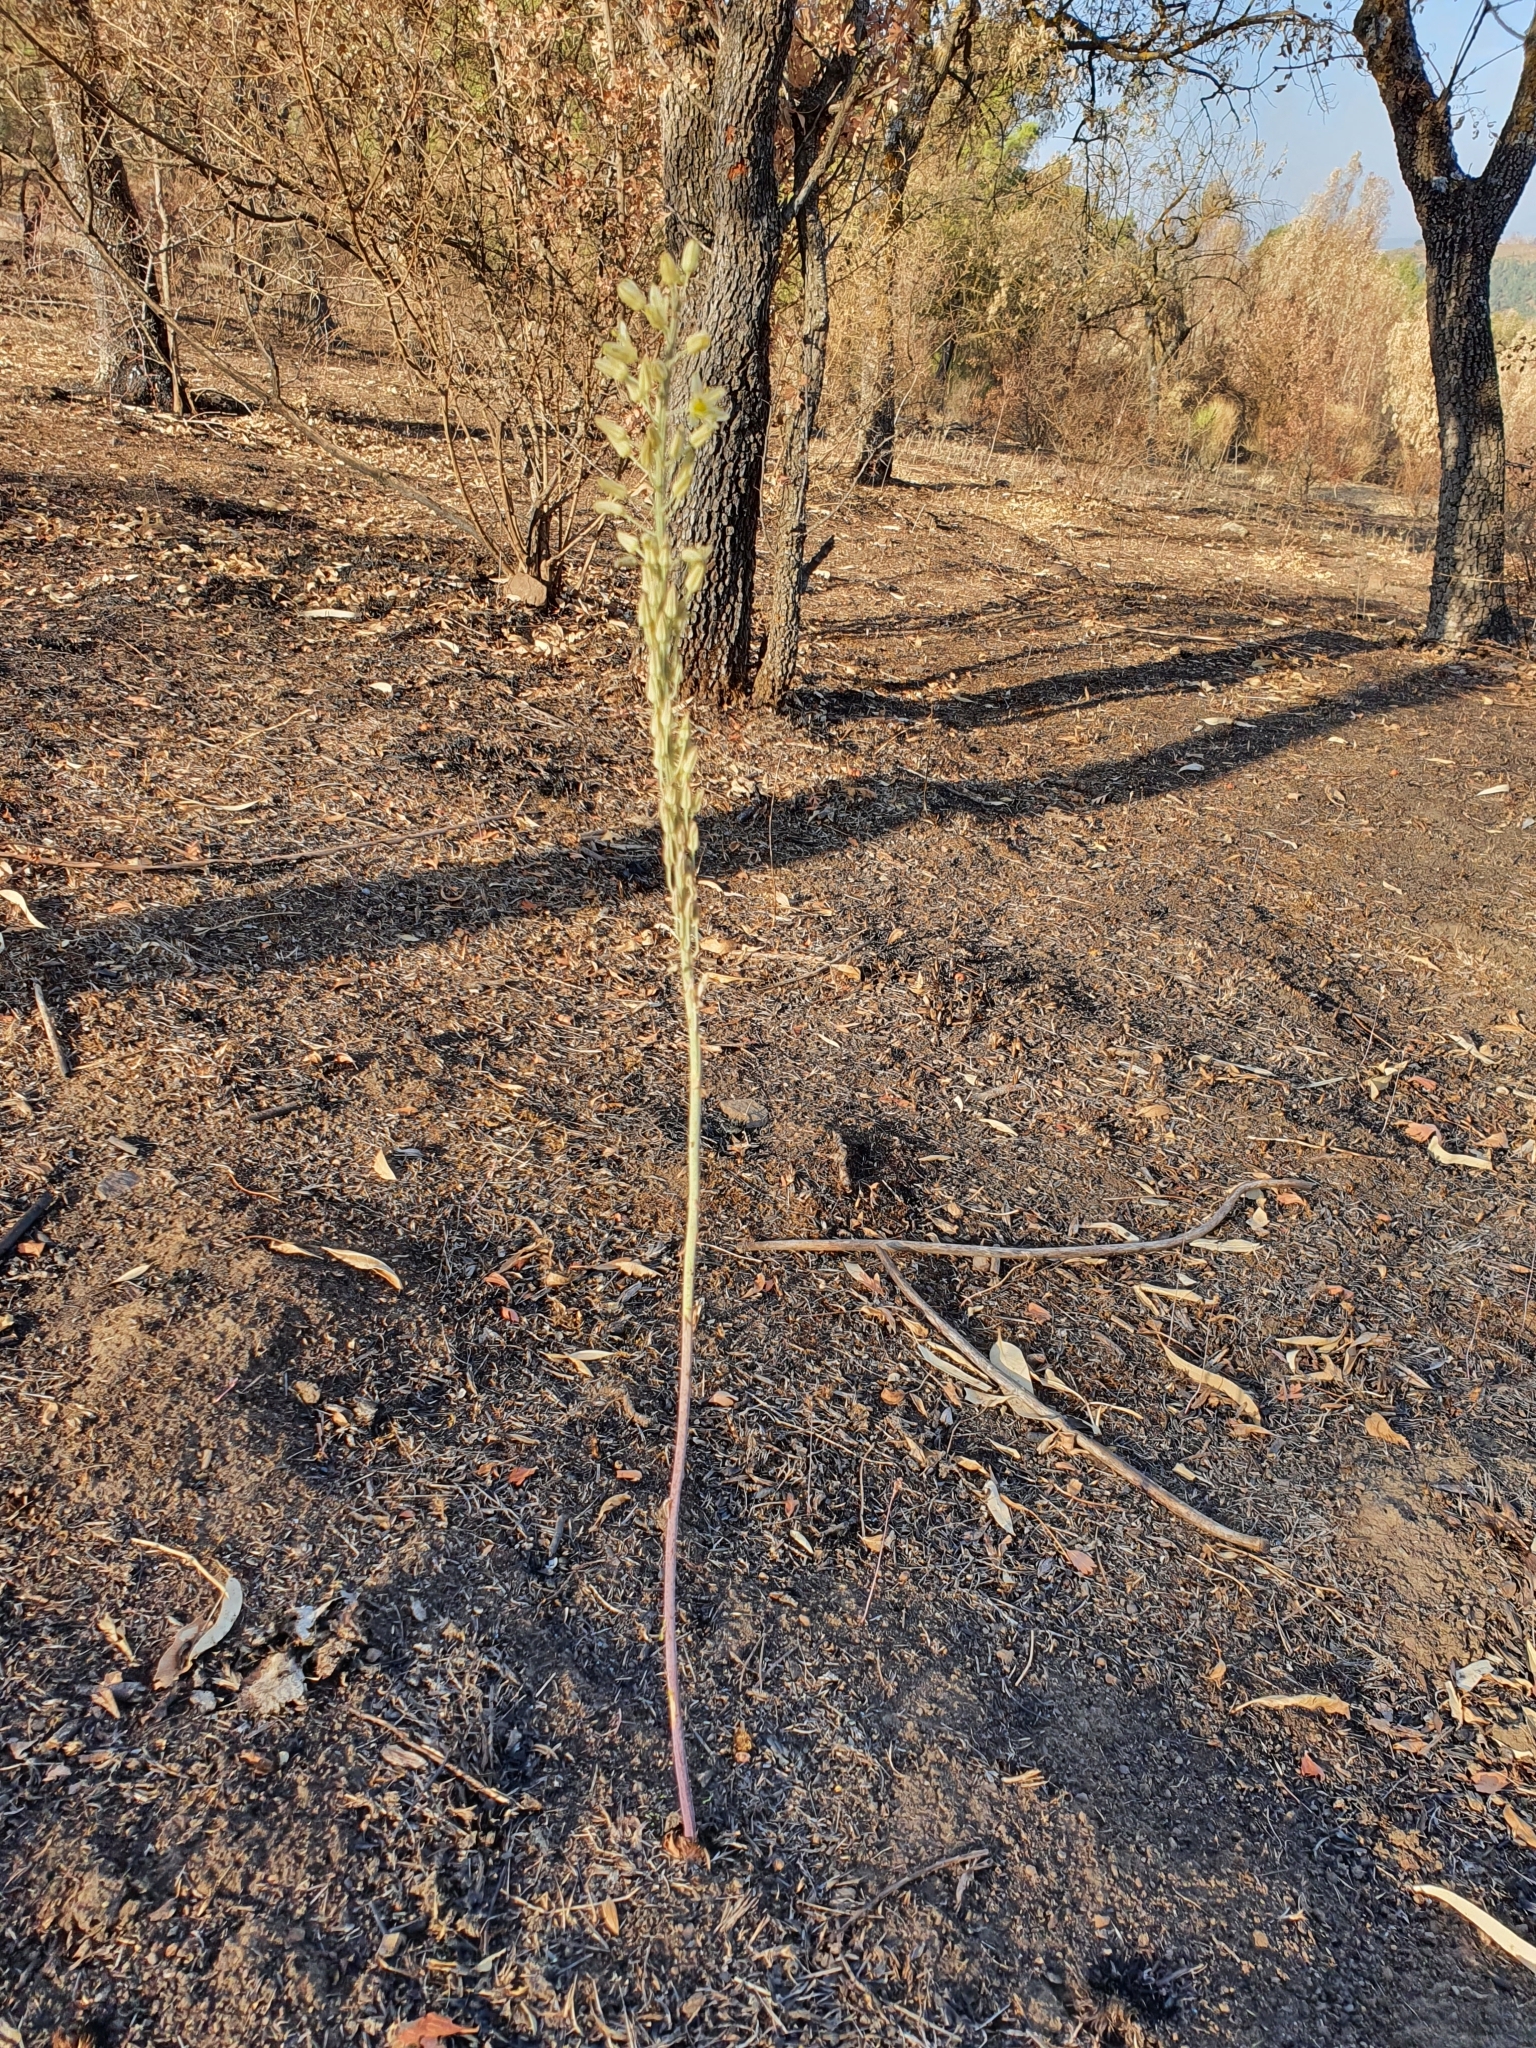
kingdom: Plantae
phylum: Tracheophyta
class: Liliopsida
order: Asparagales
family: Asparagaceae
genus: Drimia
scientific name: Drimia anthericoides
